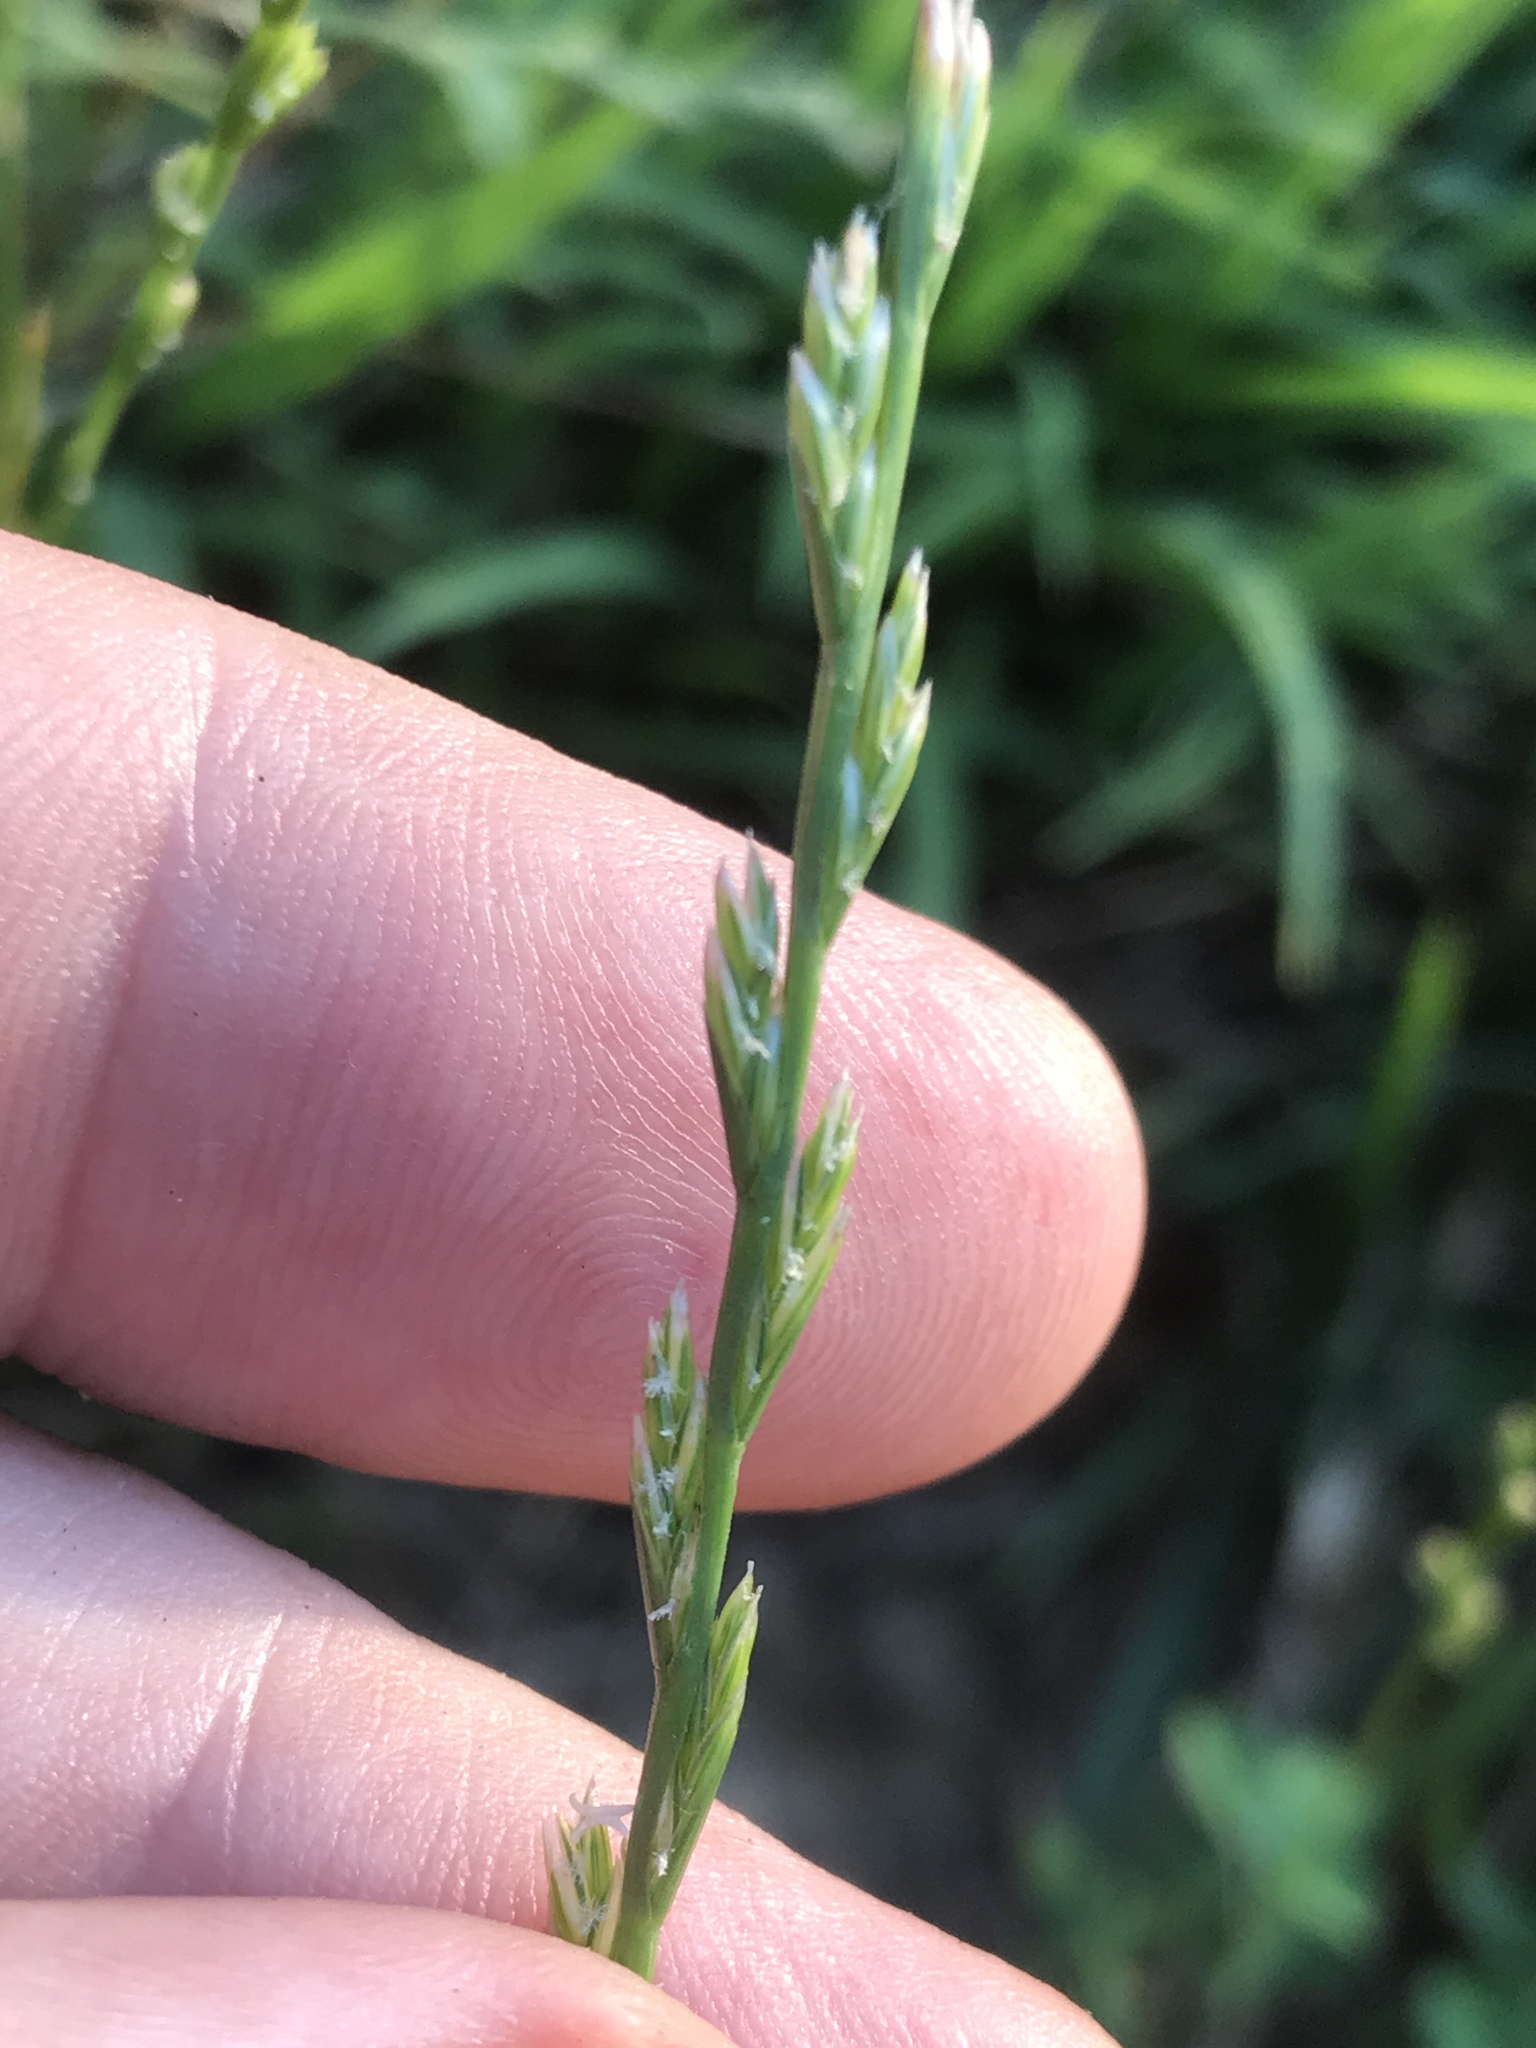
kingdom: Plantae
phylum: Tracheophyta
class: Liliopsida
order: Poales
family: Poaceae
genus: Lolium
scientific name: Lolium perenne
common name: Perennial ryegrass
